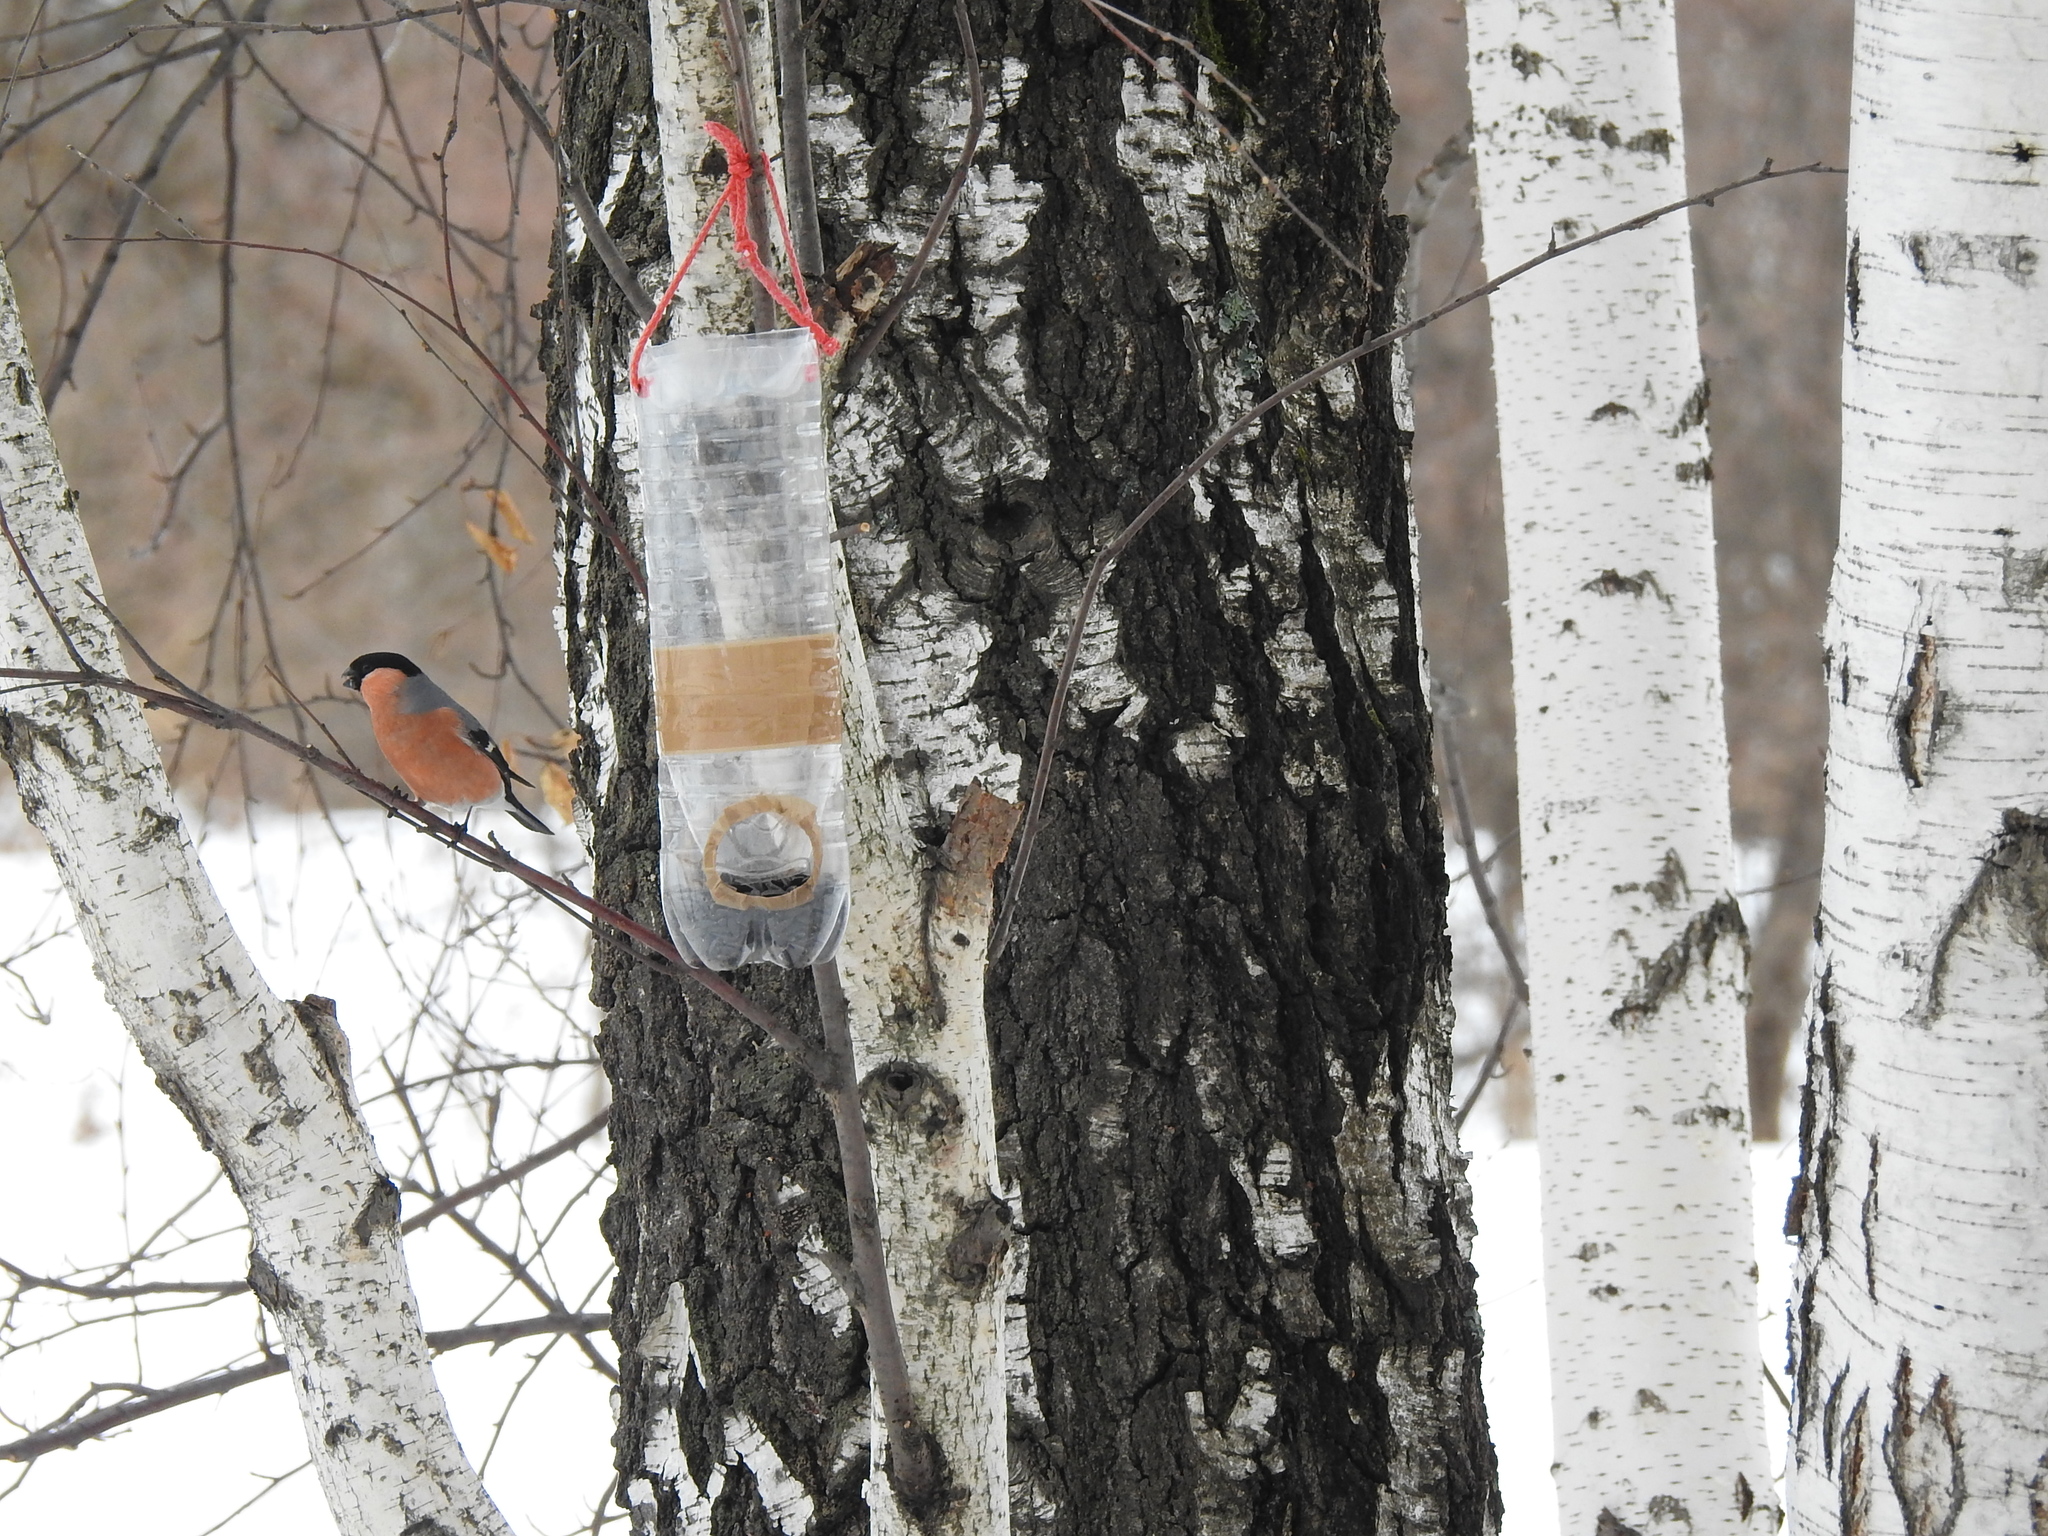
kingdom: Animalia
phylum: Chordata
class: Aves
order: Passeriformes
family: Fringillidae
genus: Pyrrhula
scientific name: Pyrrhula pyrrhula
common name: Eurasian bullfinch
